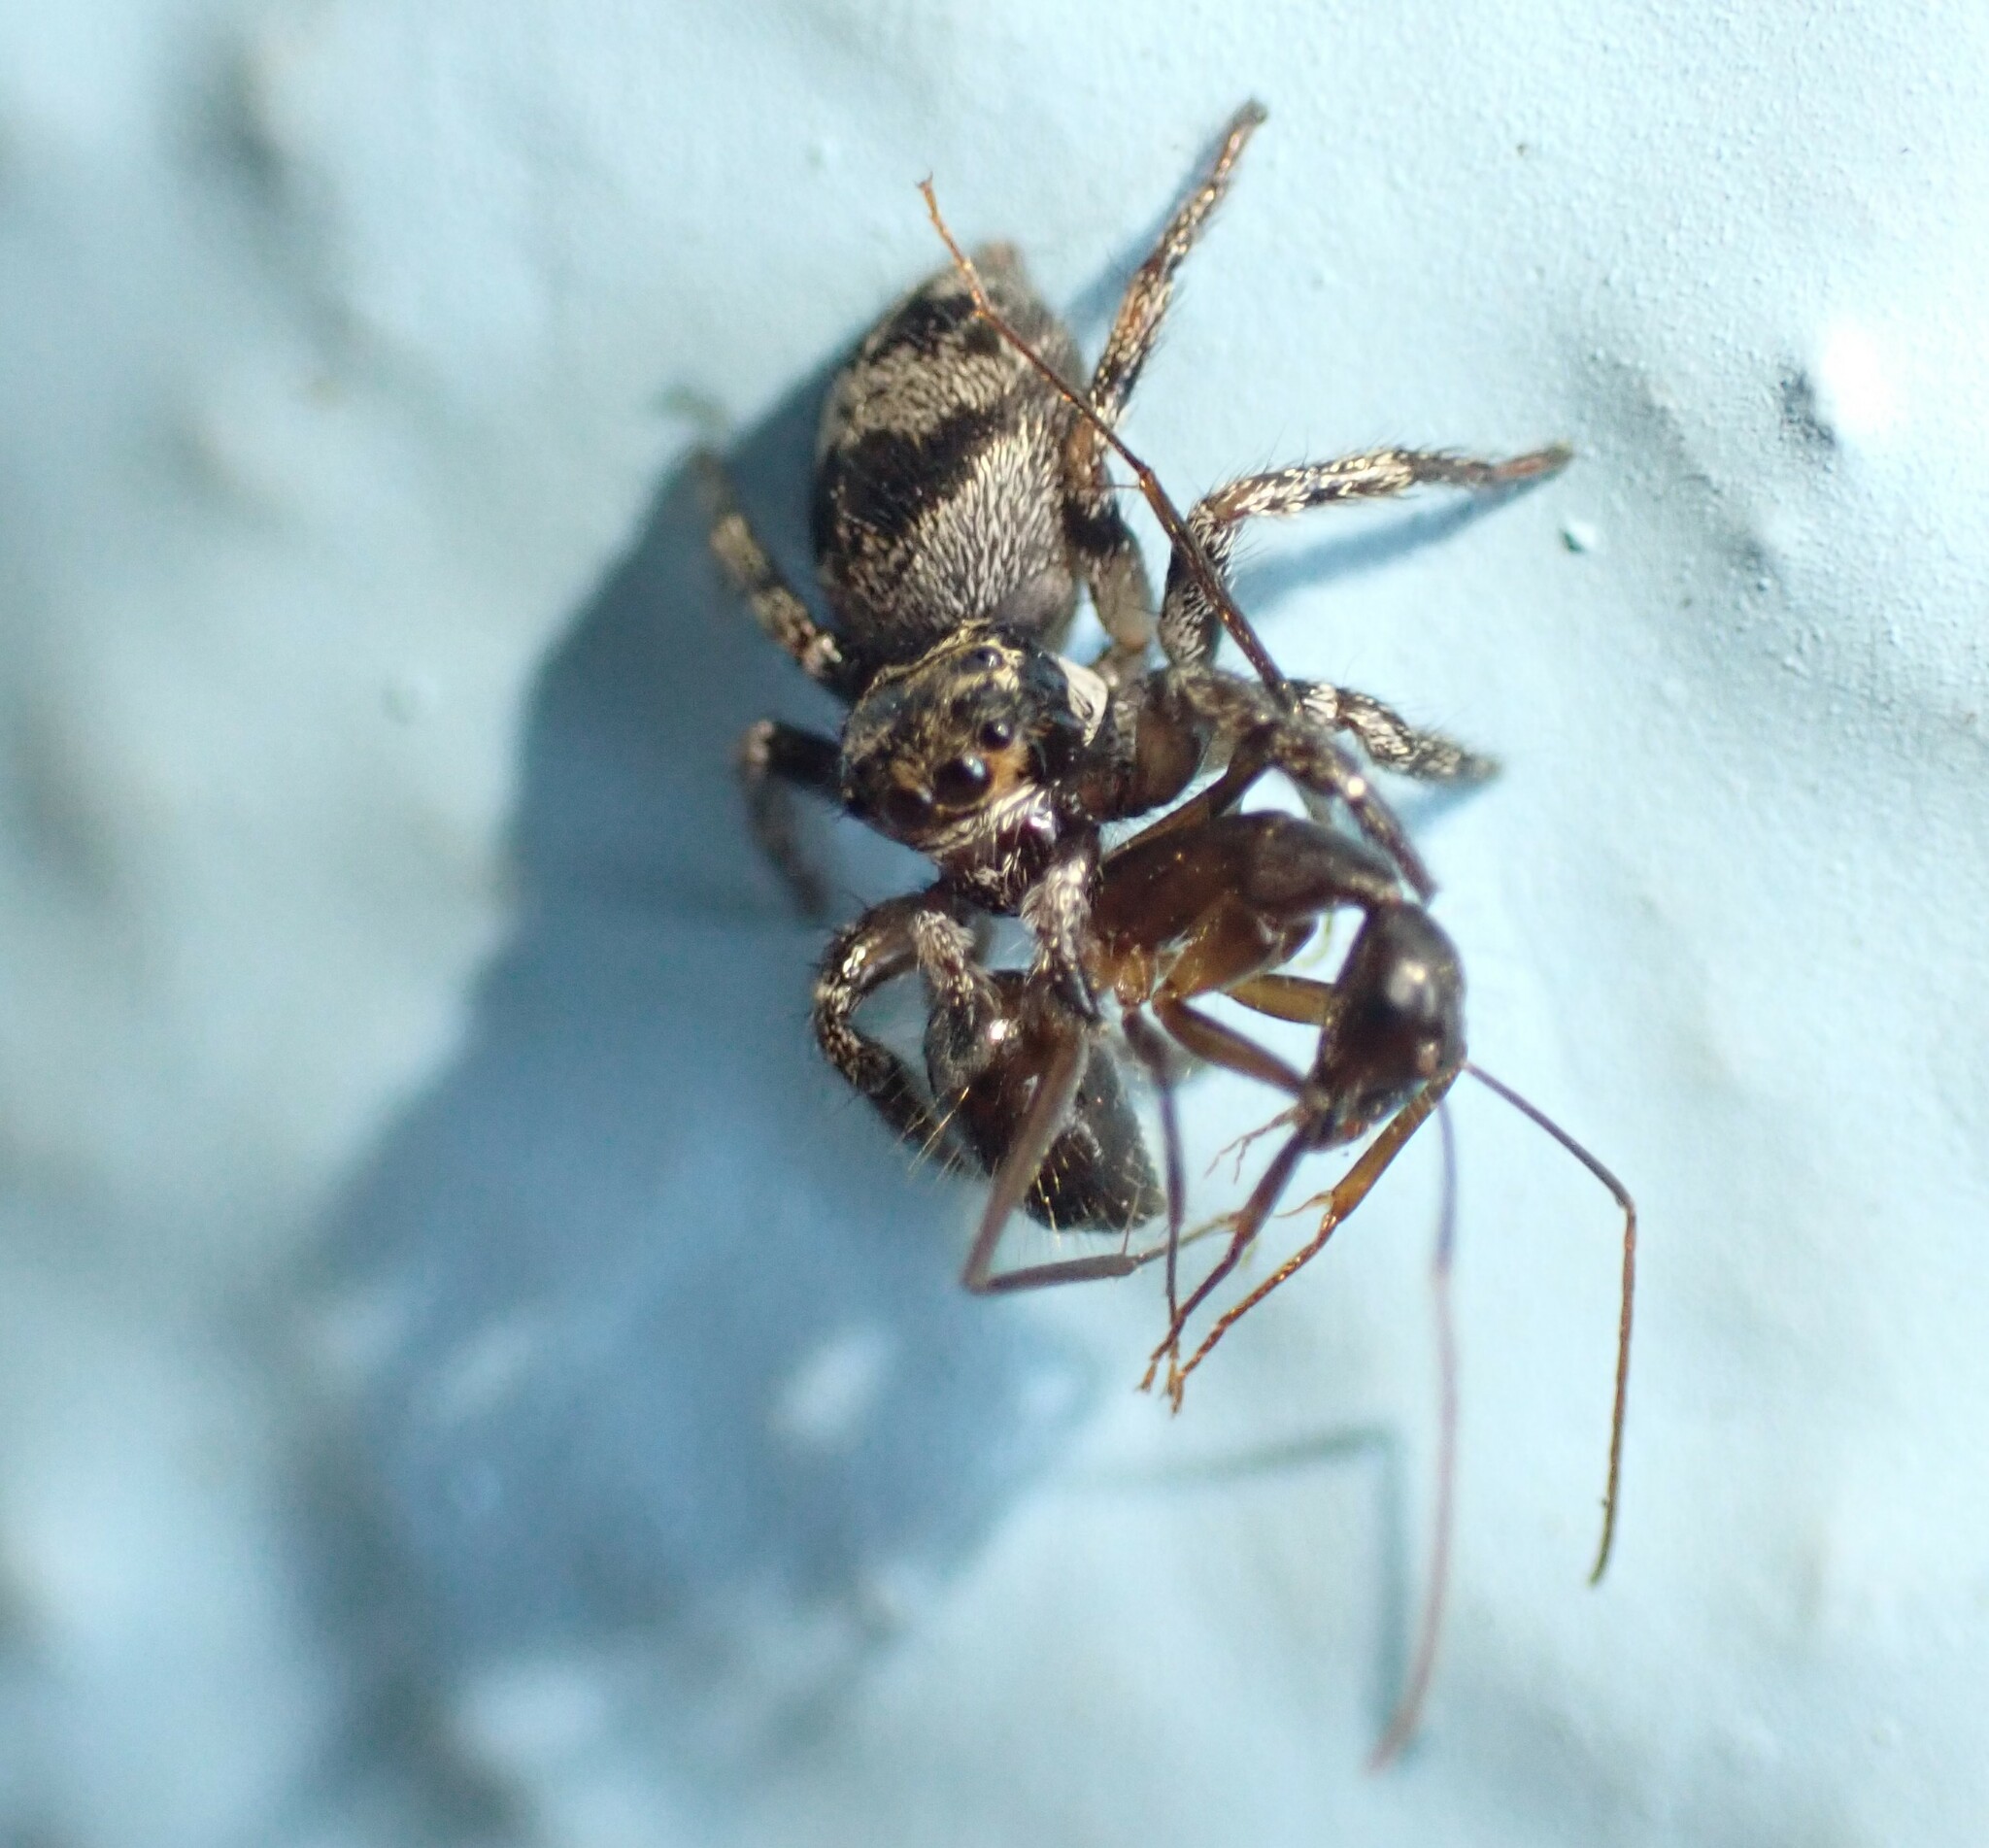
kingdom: Animalia
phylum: Arthropoda
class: Arachnida
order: Araneae
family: Salticidae
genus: Corythalia
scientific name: Corythalia conferta
